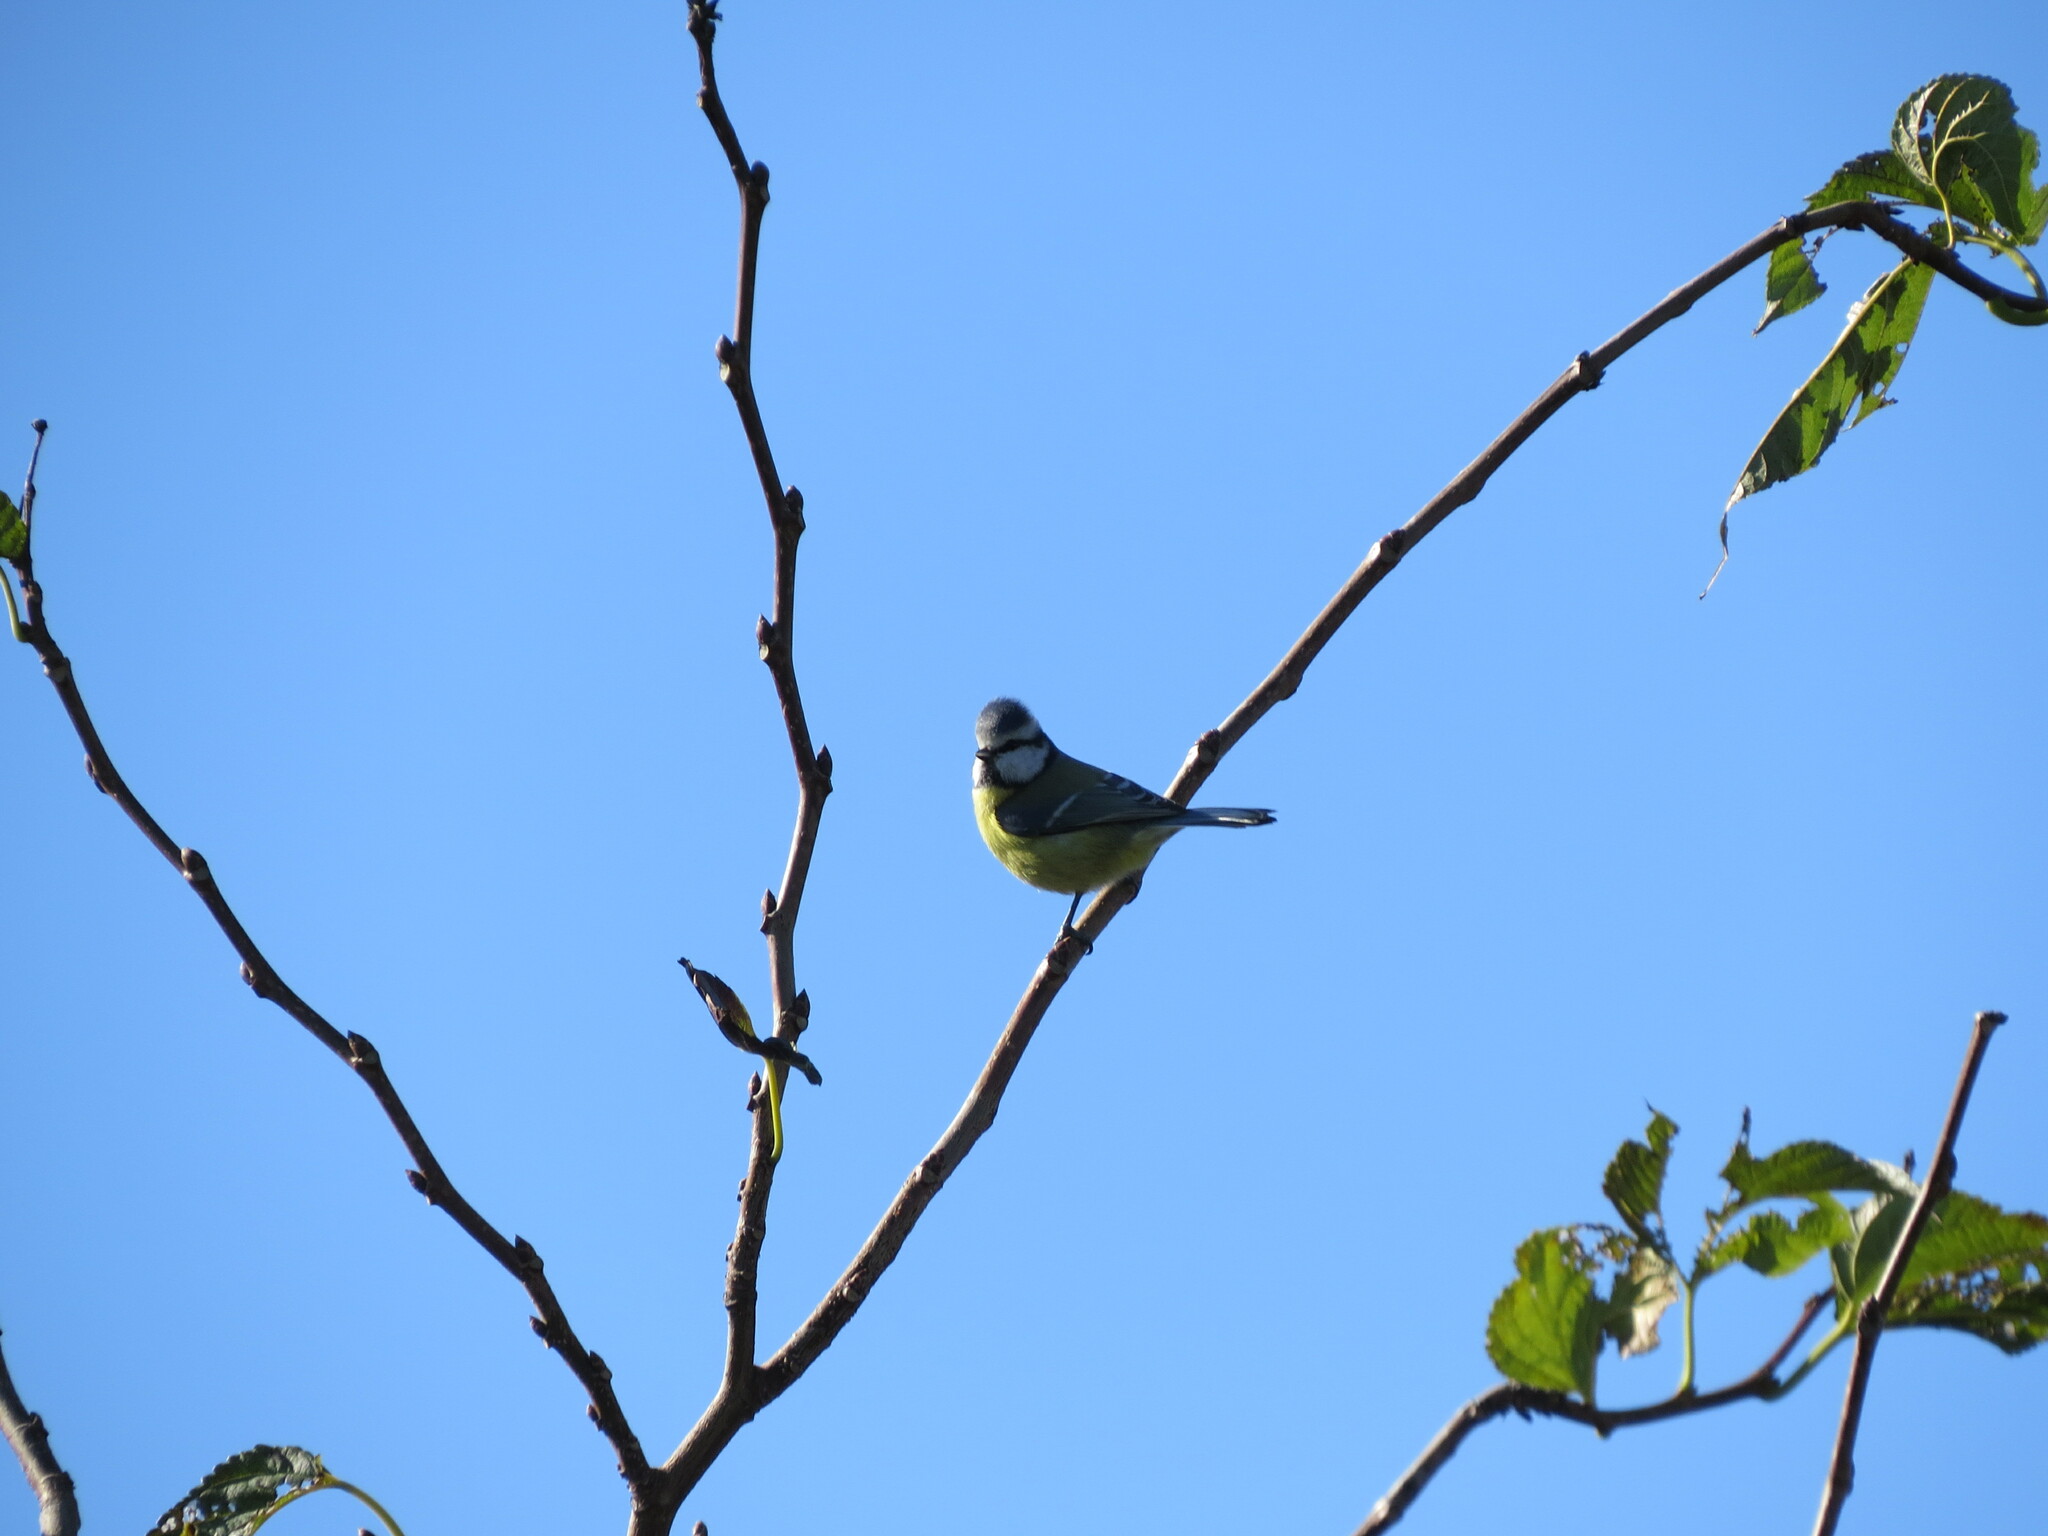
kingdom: Animalia
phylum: Chordata
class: Aves
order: Passeriformes
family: Paridae
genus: Cyanistes
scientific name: Cyanistes caeruleus
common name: Eurasian blue tit
